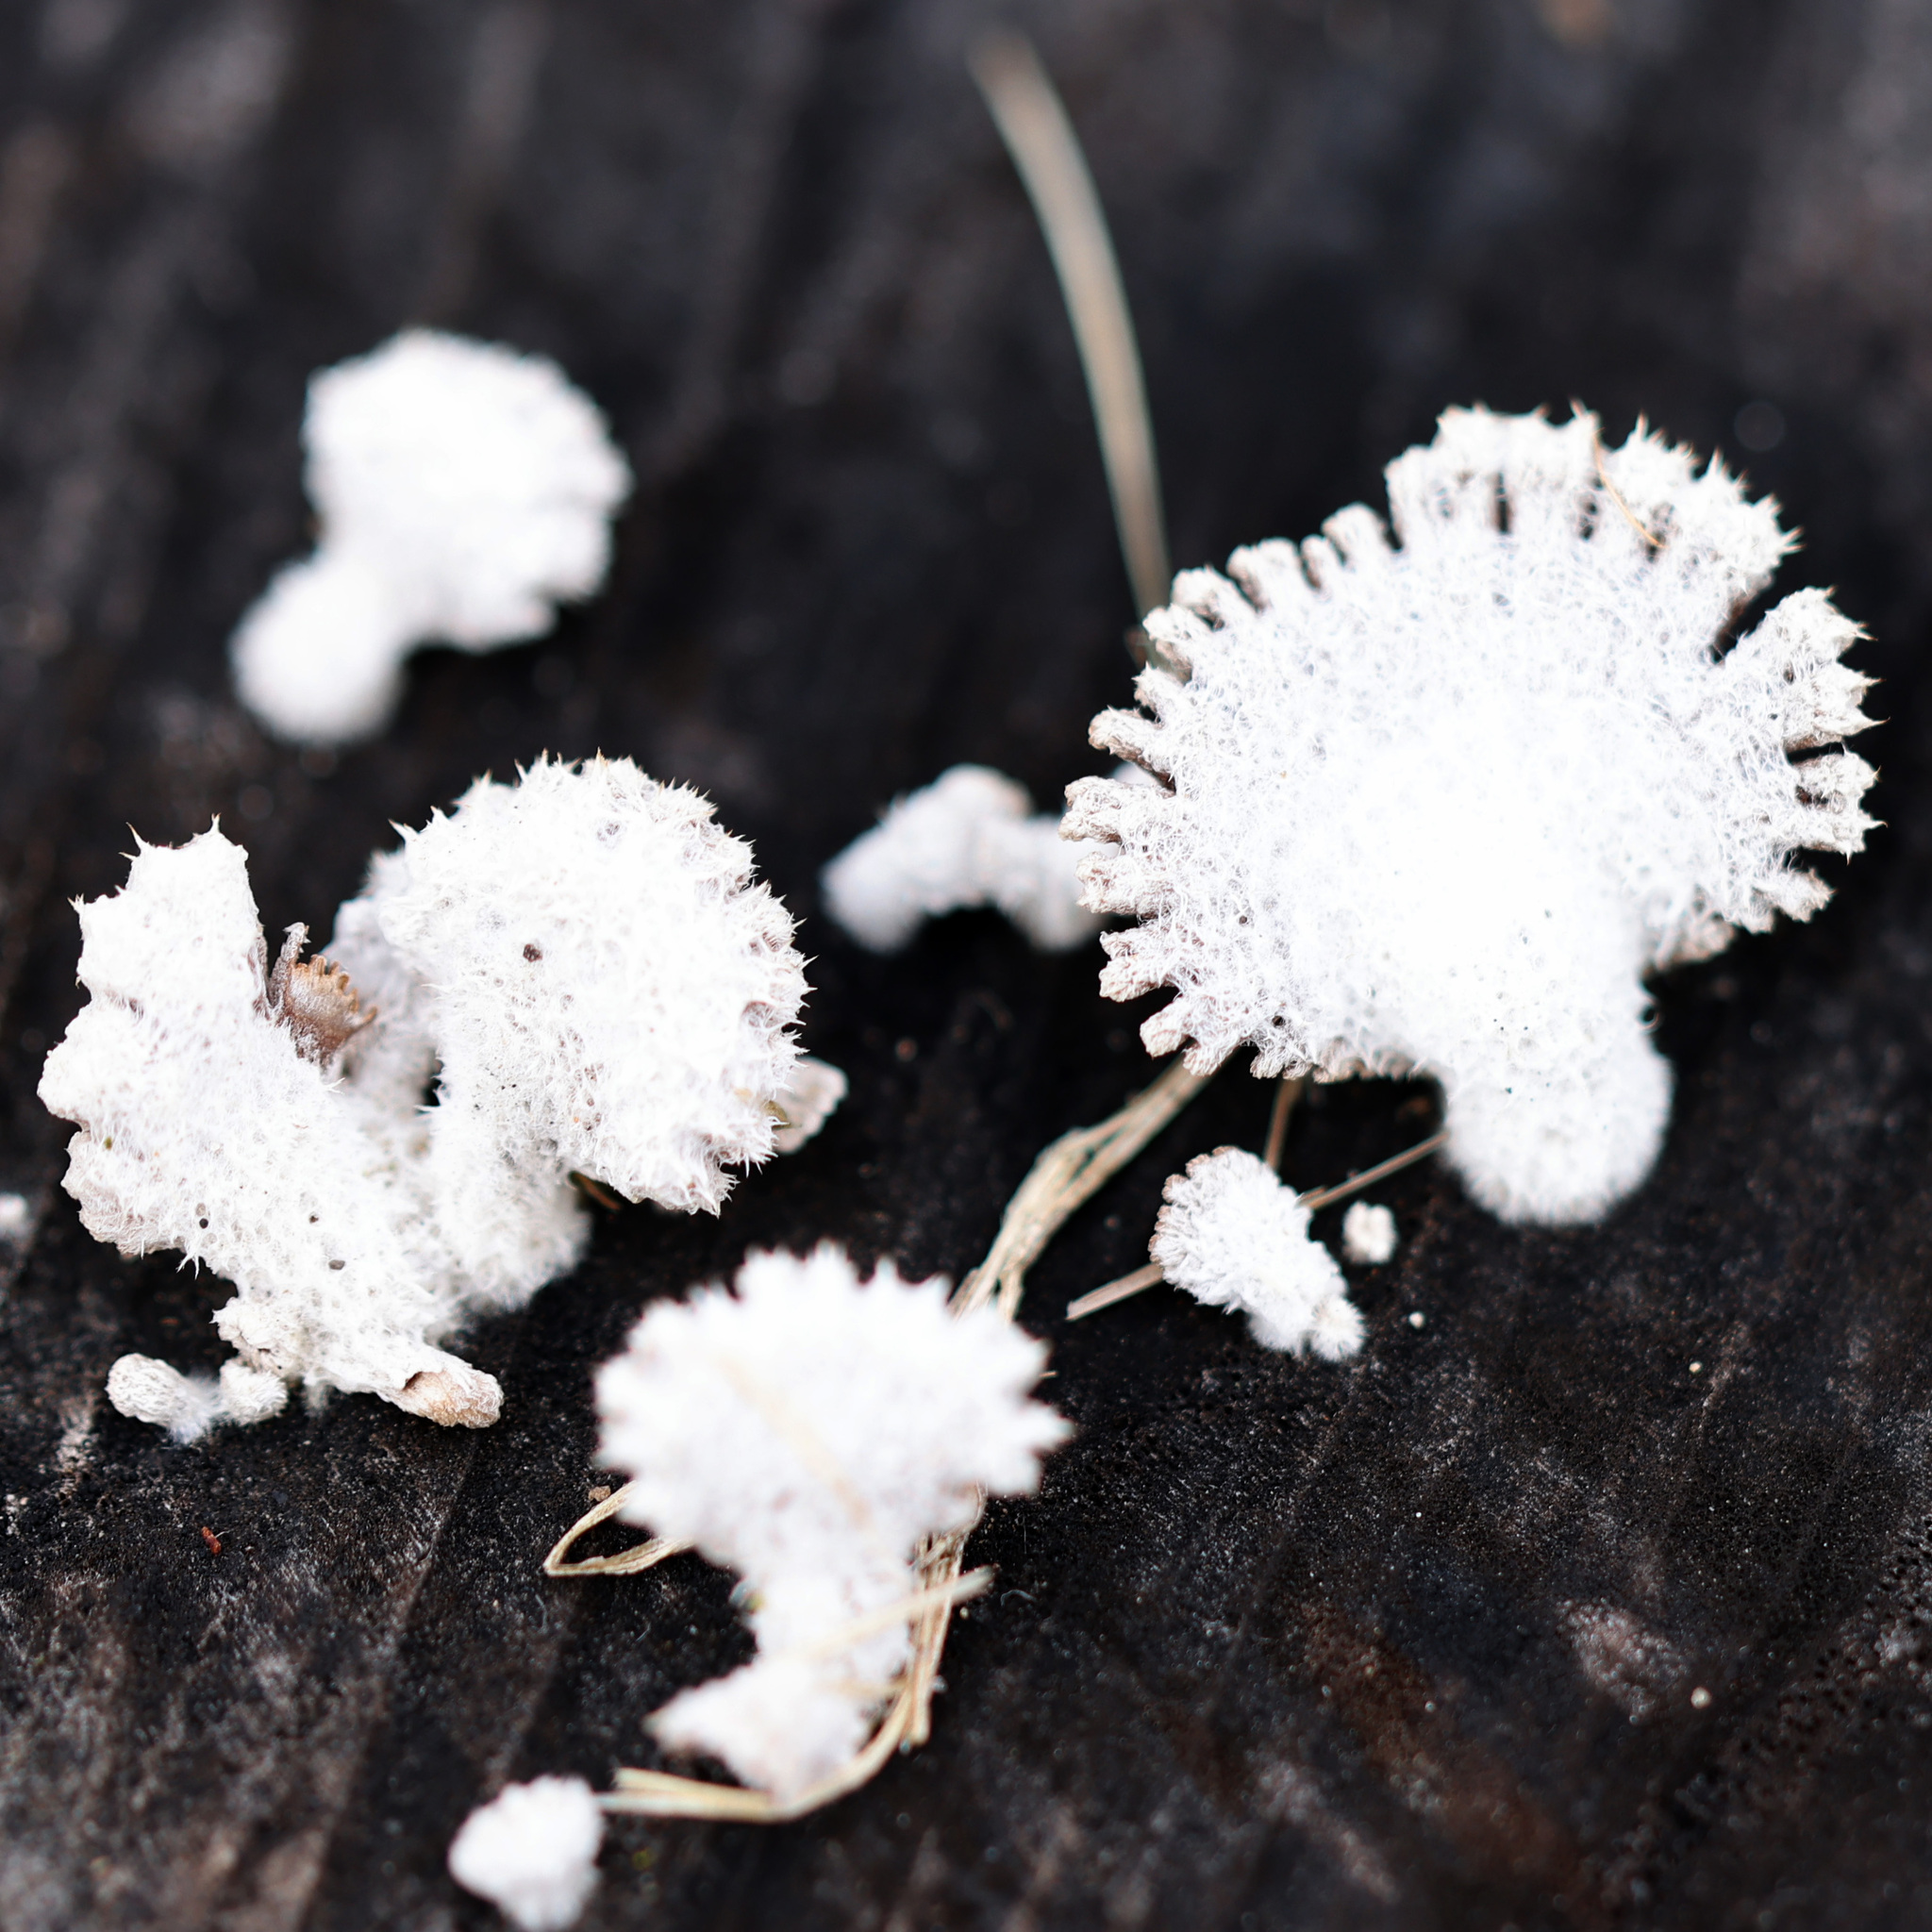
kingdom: Fungi
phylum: Basidiomycota
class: Agaricomycetes
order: Agaricales
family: Schizophyllaceae
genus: Schizophyllum
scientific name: Schizophyllum commune
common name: Common porecrust
